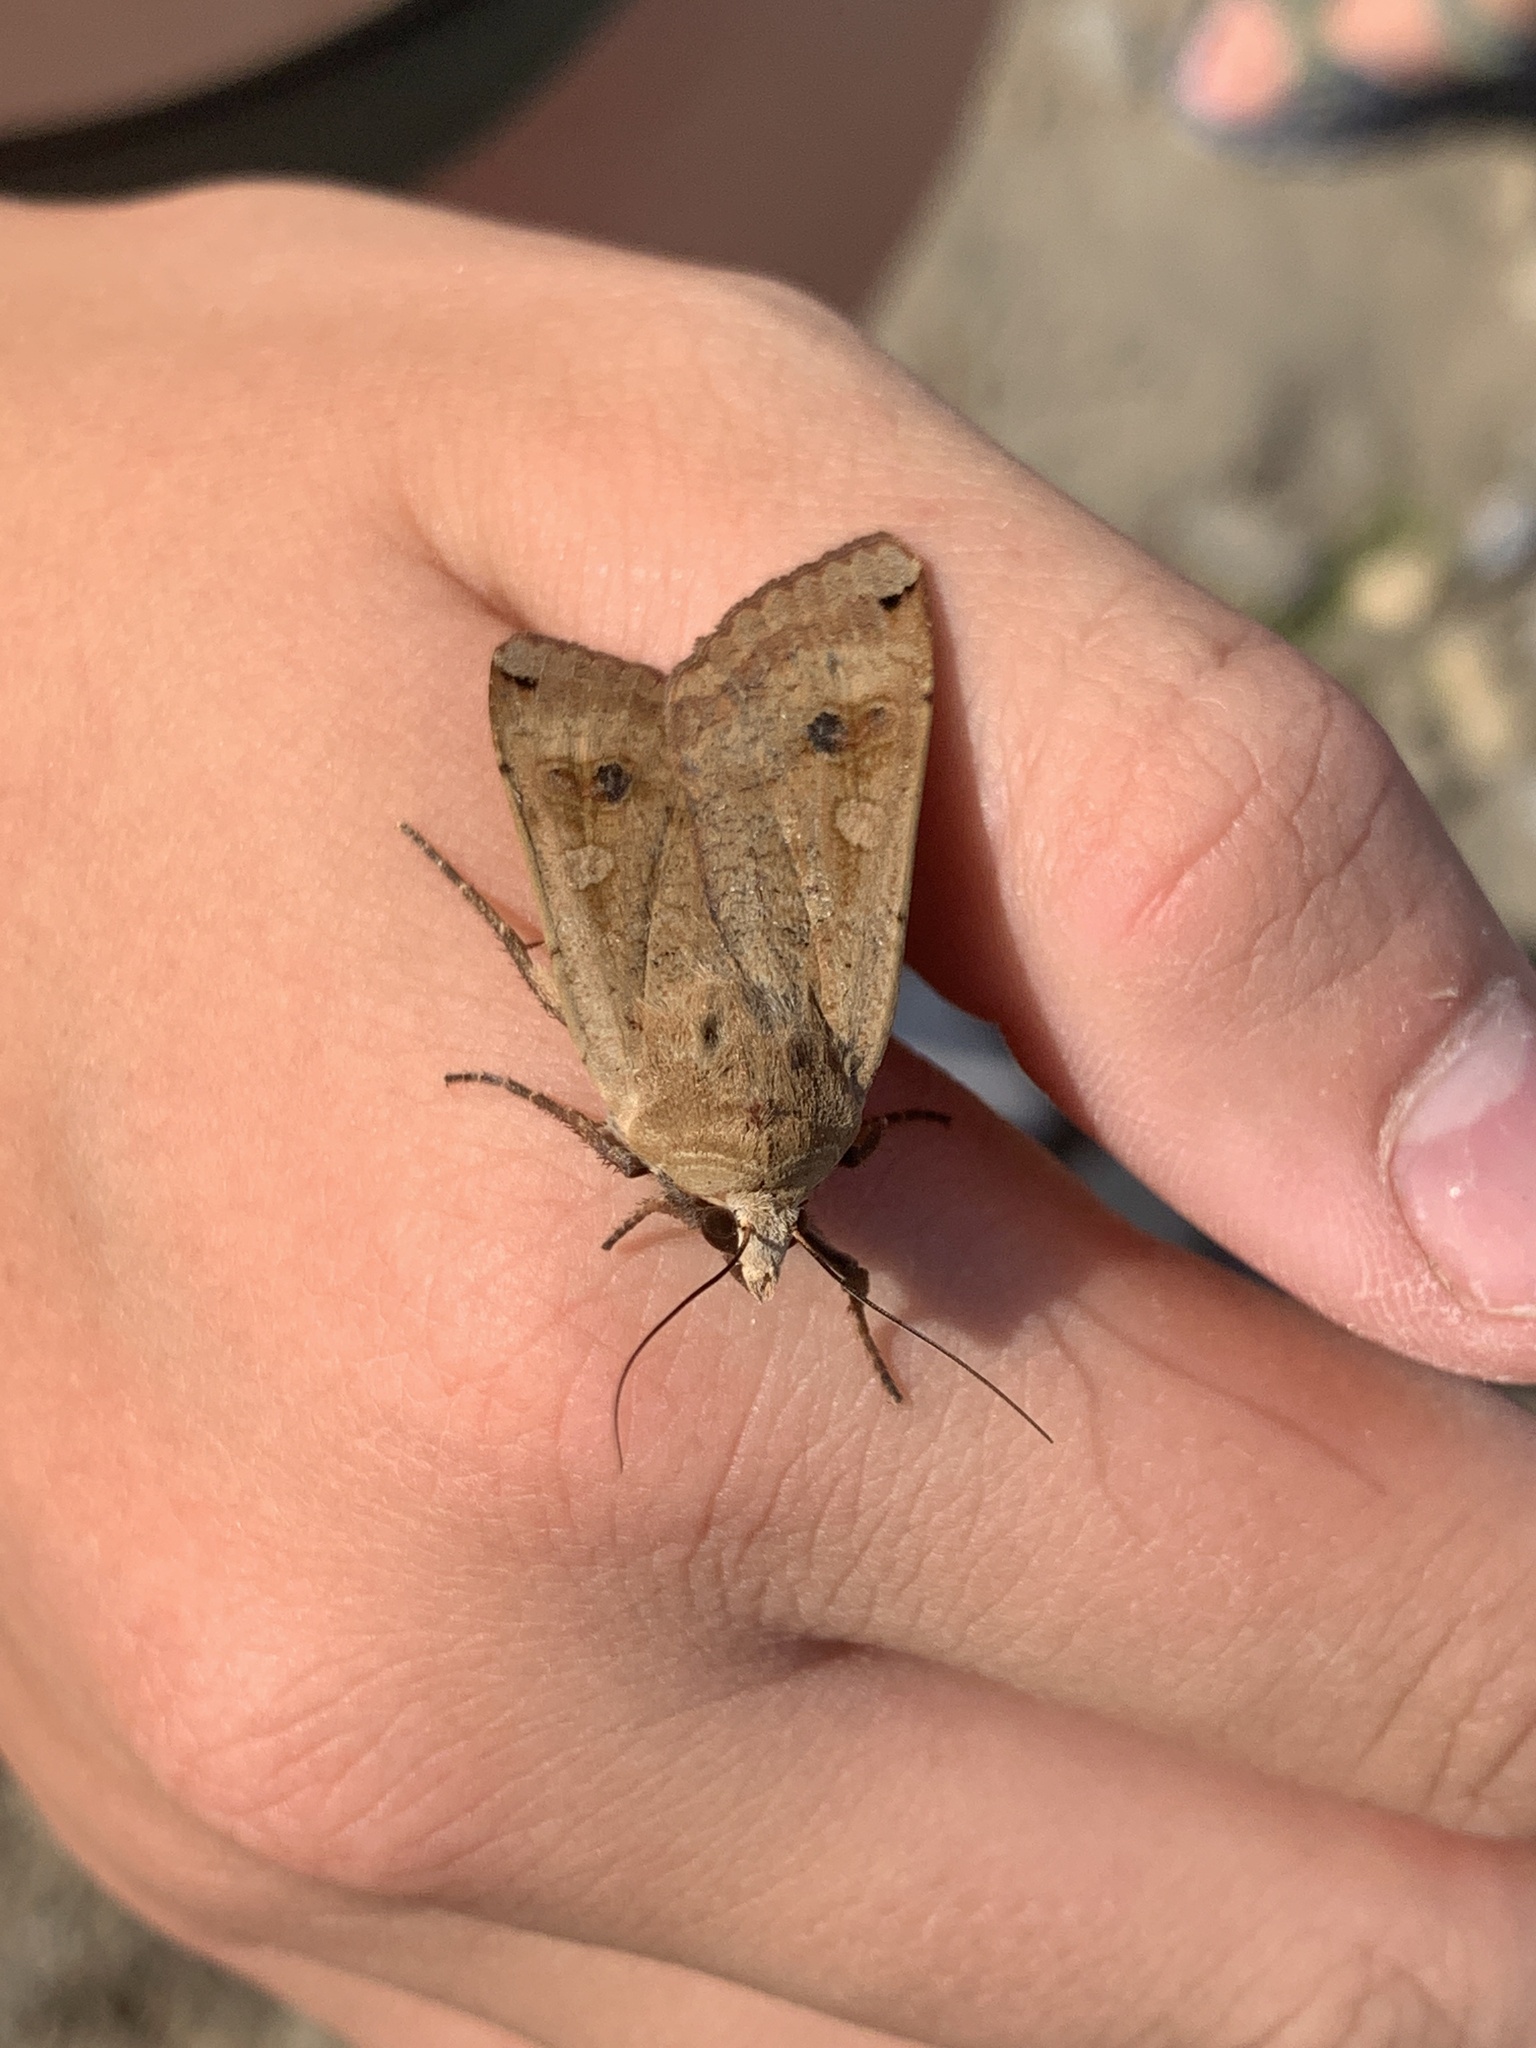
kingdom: Animalia
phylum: Arthropoda
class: Insecta
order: Lepidoptera
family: Noctuidae
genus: Noctua
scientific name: Noctua pronuba
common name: Large yellow underwing
